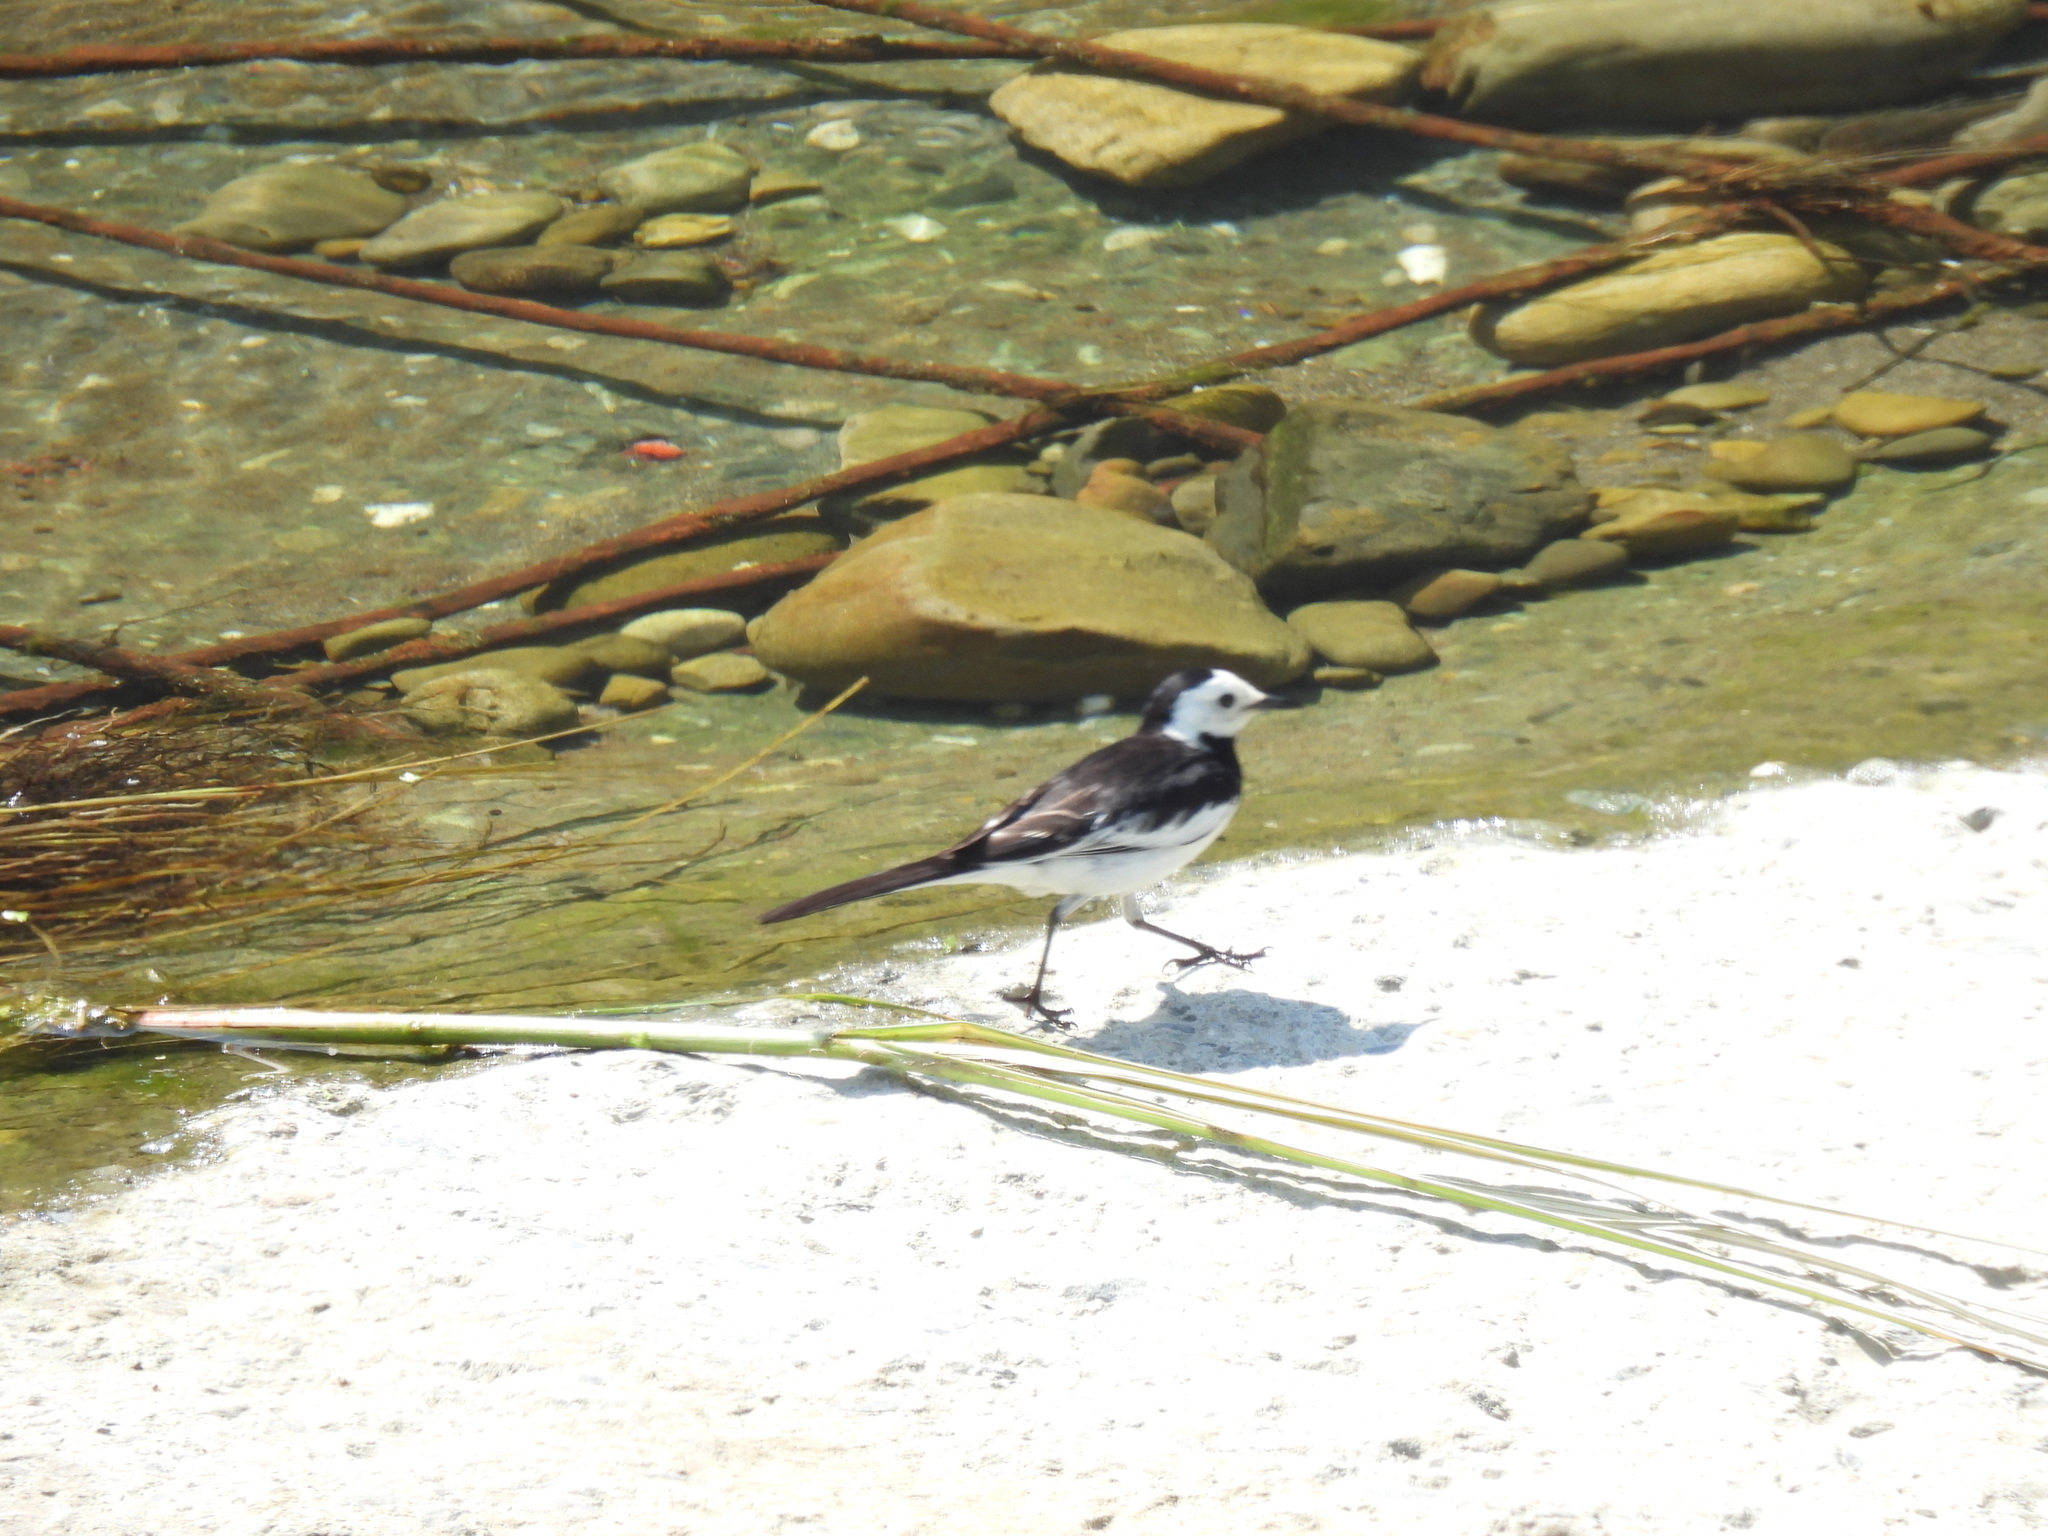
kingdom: Animalia
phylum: Chordata
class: Aves
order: Passeriformes
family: Motacillidae
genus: Motacilla
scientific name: Motacilla alba
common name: White wagtail
